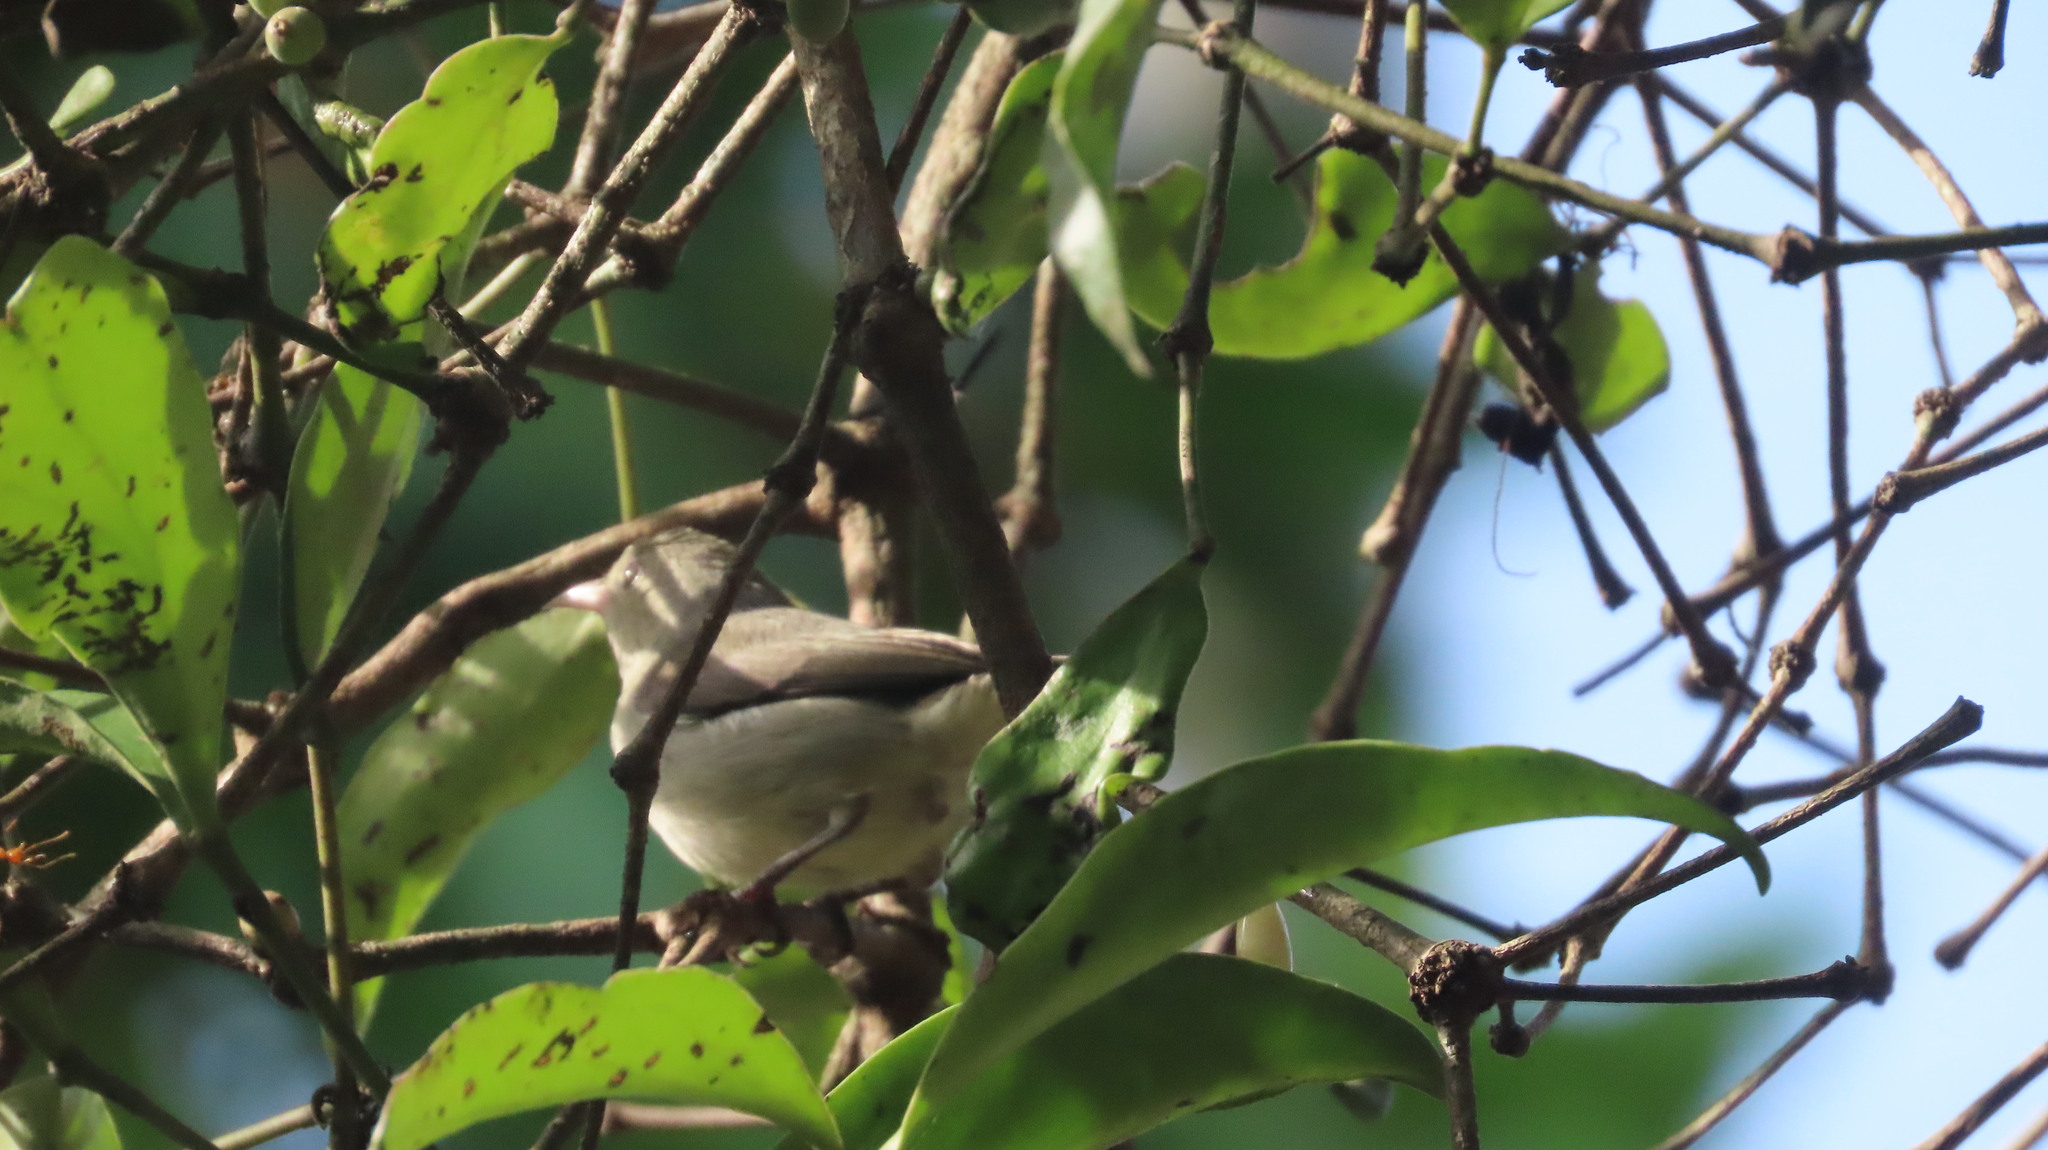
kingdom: Animalia
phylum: Chordata
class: Aves
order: Passeriformes
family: Dicaeidae
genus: Dicaeum
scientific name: Dicaeum erythrorhynchos
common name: Pale-billed flowerpecker
